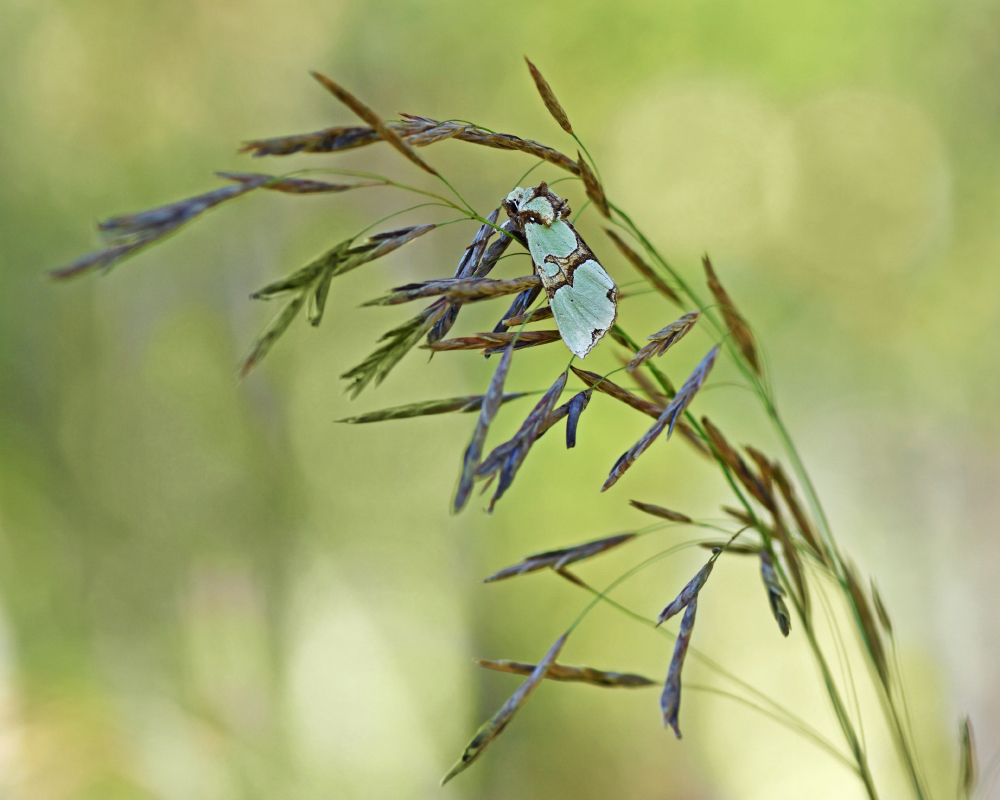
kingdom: Animalia
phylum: Arthropoda
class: Insecta
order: Lepidoptera
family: Noctuidae
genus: Staurophora
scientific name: Staurophora celsia
